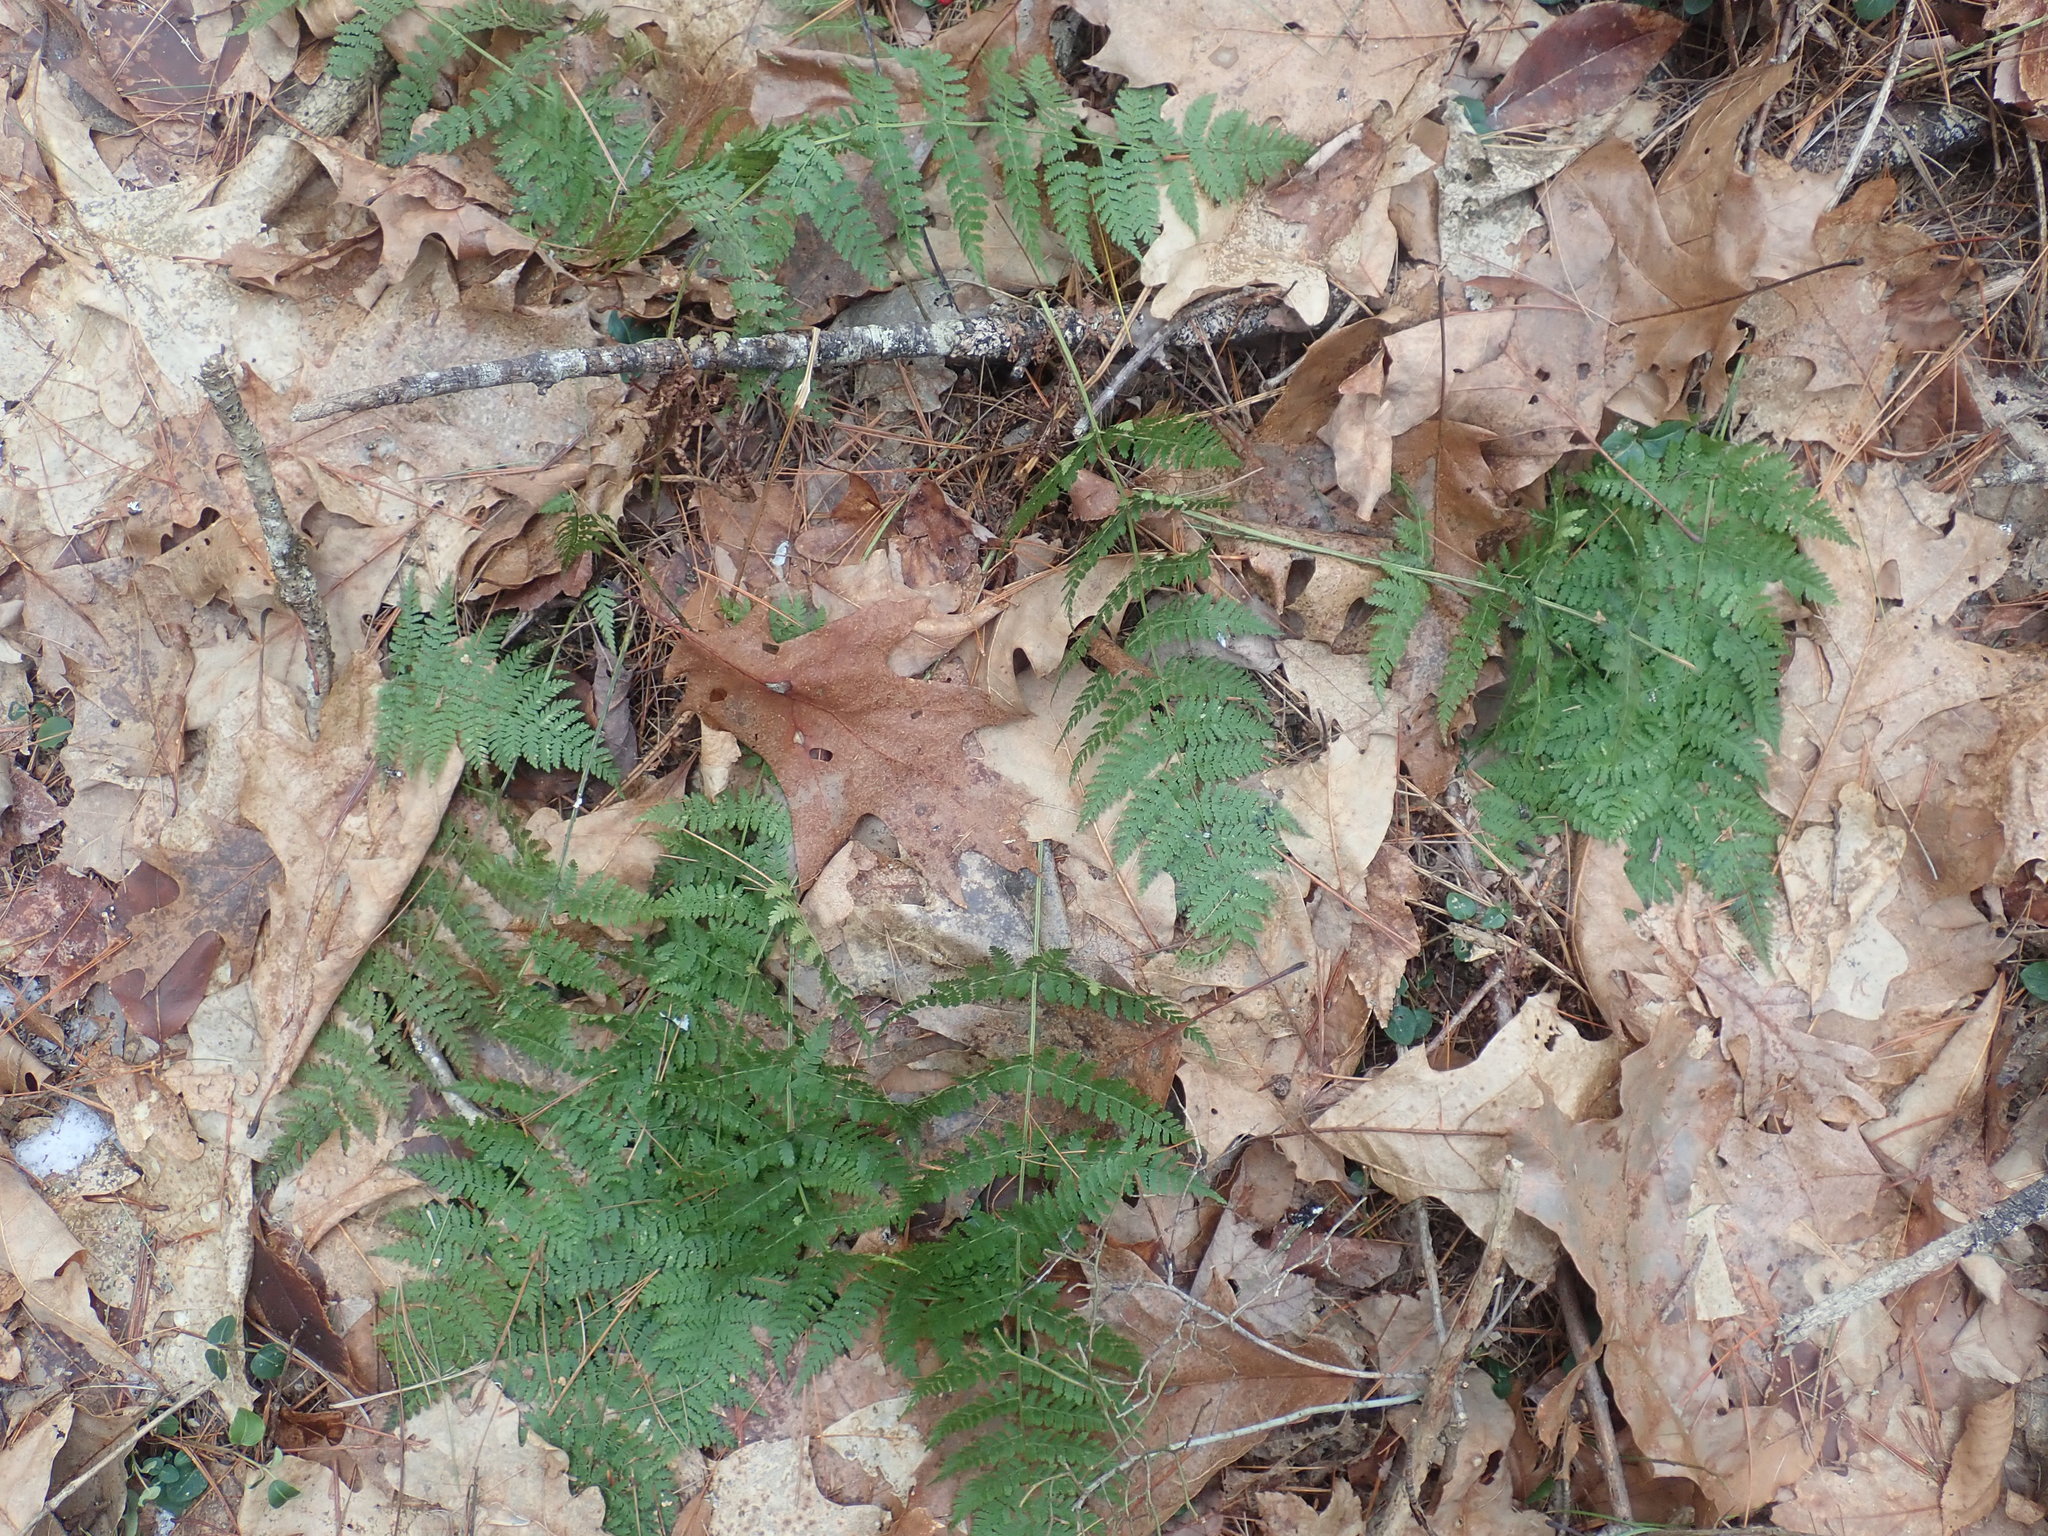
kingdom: Plantae
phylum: Tracheophyta
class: Polypodiopsida
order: Polypodiales
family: Dryopteridaceae
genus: Dryopteris
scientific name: Dryopteris intermedia
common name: Evergreen wood fern
